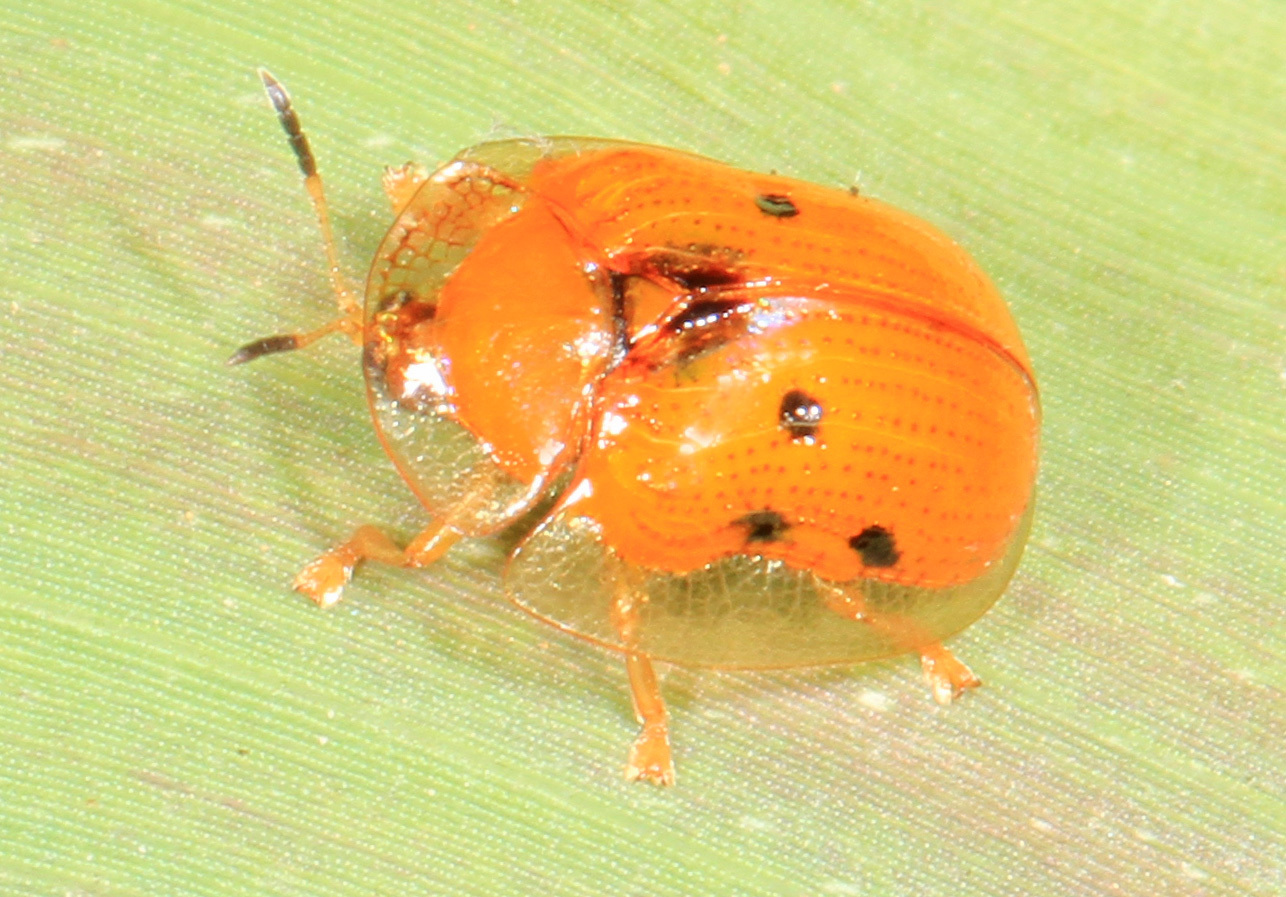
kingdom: Animalia
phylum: Arthropoda
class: Insecta
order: Coleoptera
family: Chrysomelidae
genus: Charidotella
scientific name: Charidotella sexpunctata
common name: Golden tortoise beetle
